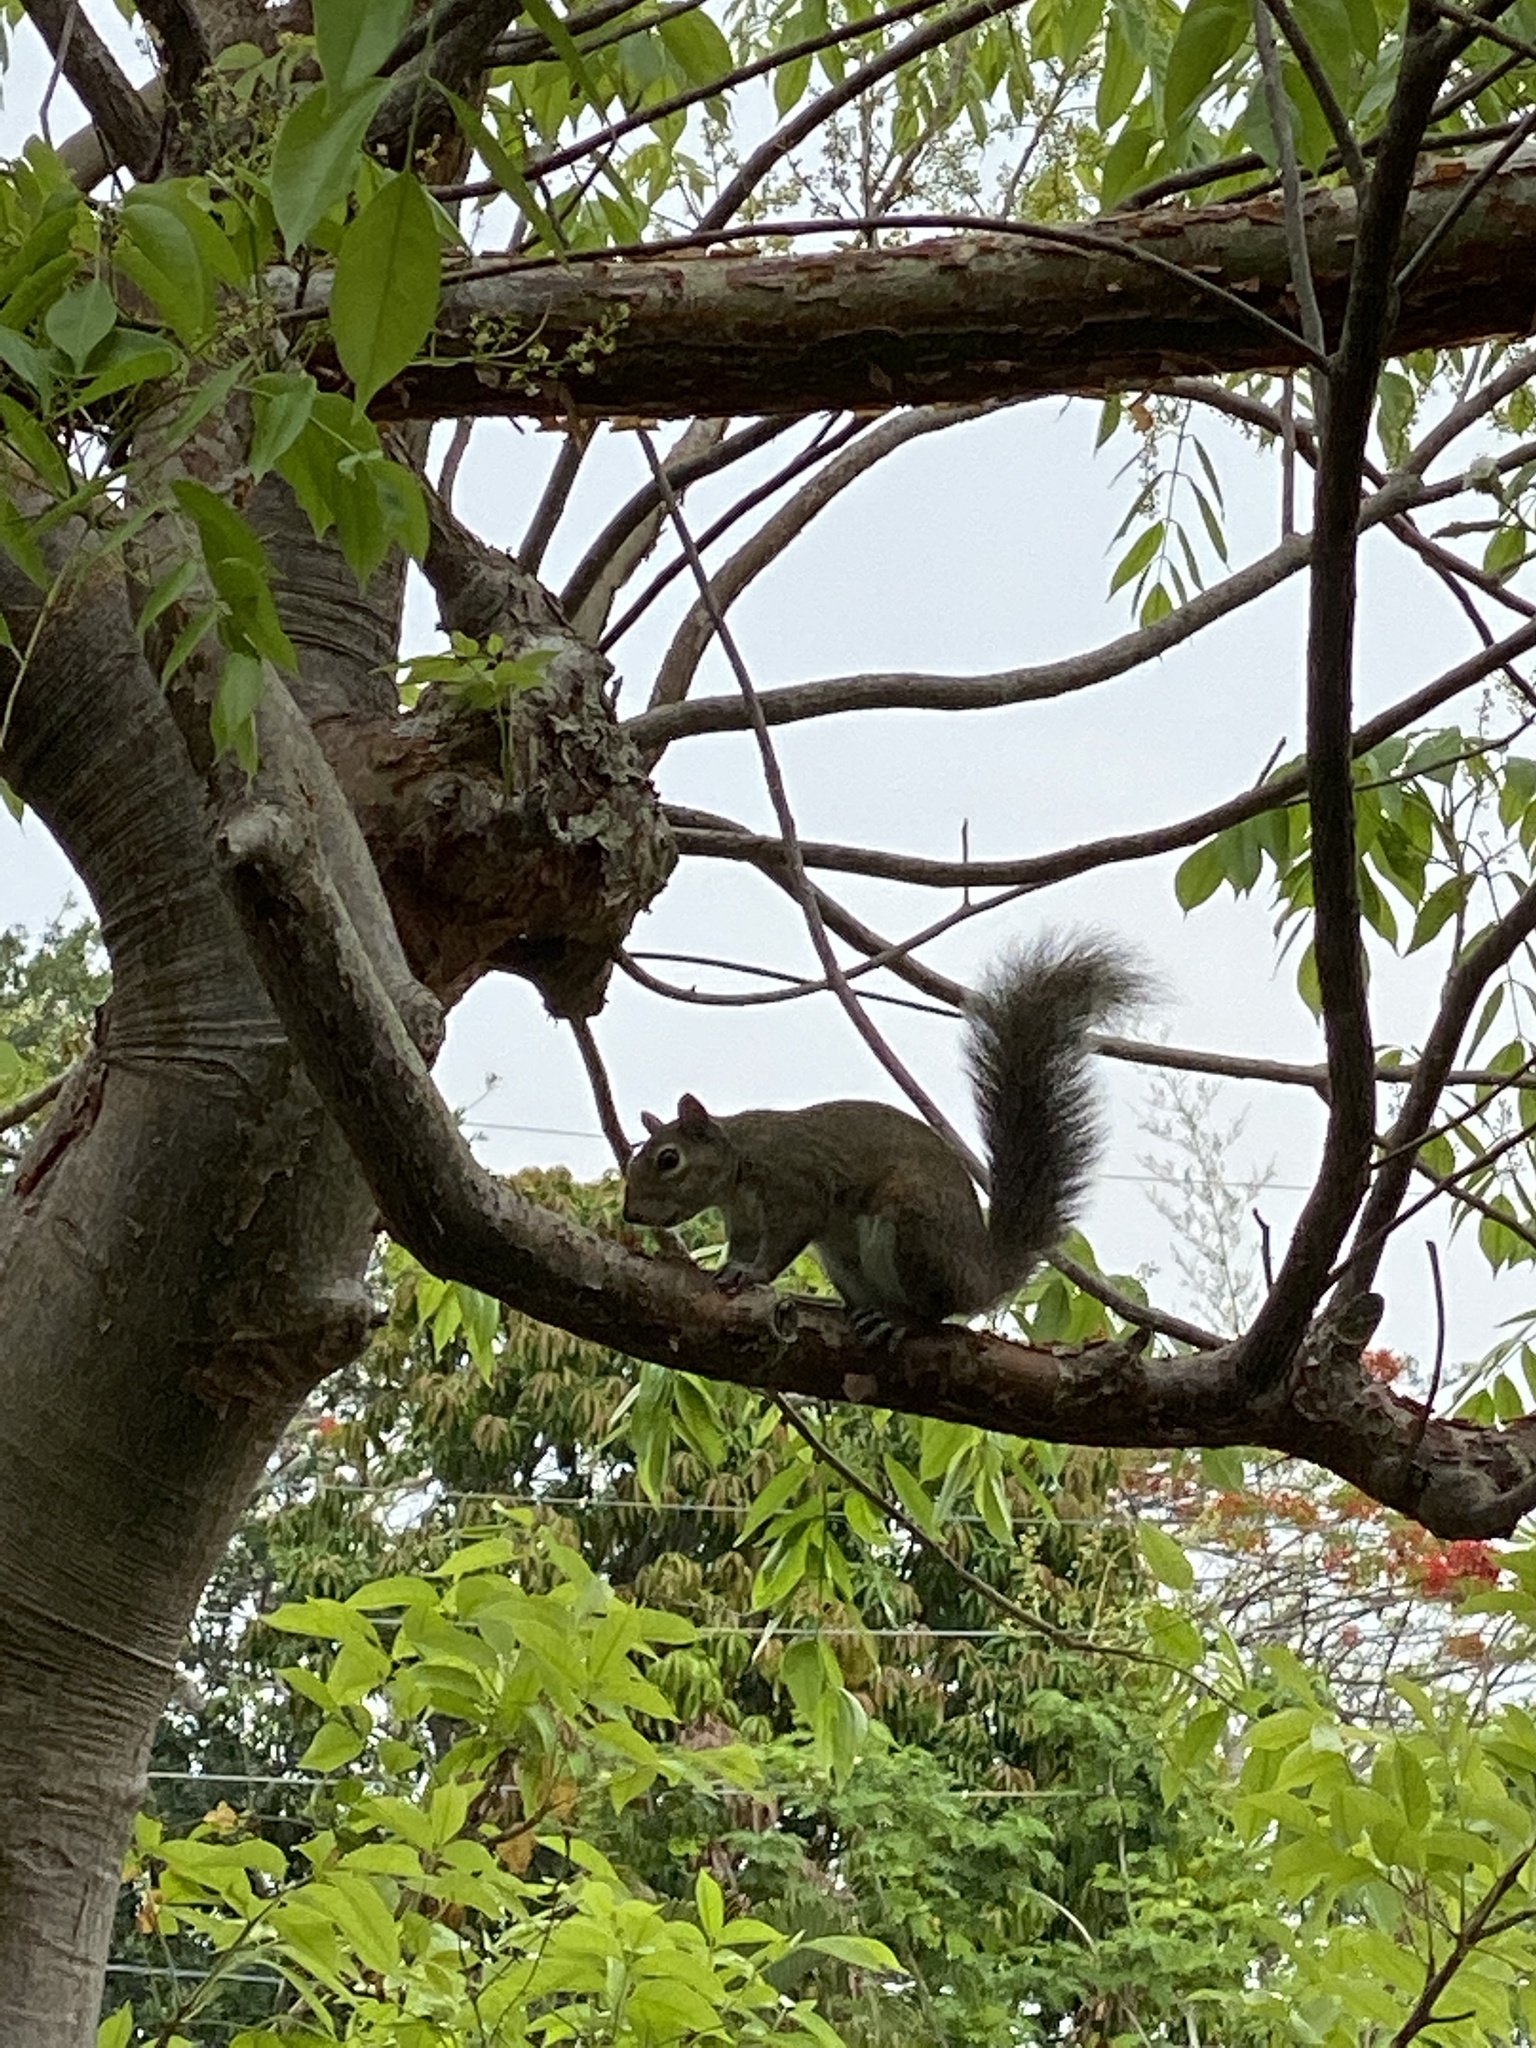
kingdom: Animalia
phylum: Chordata
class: Mammalia
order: Rodentia
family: Sciuridae
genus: Sciurus
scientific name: Sciurus carolinensis
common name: Eastern gray squirrel
